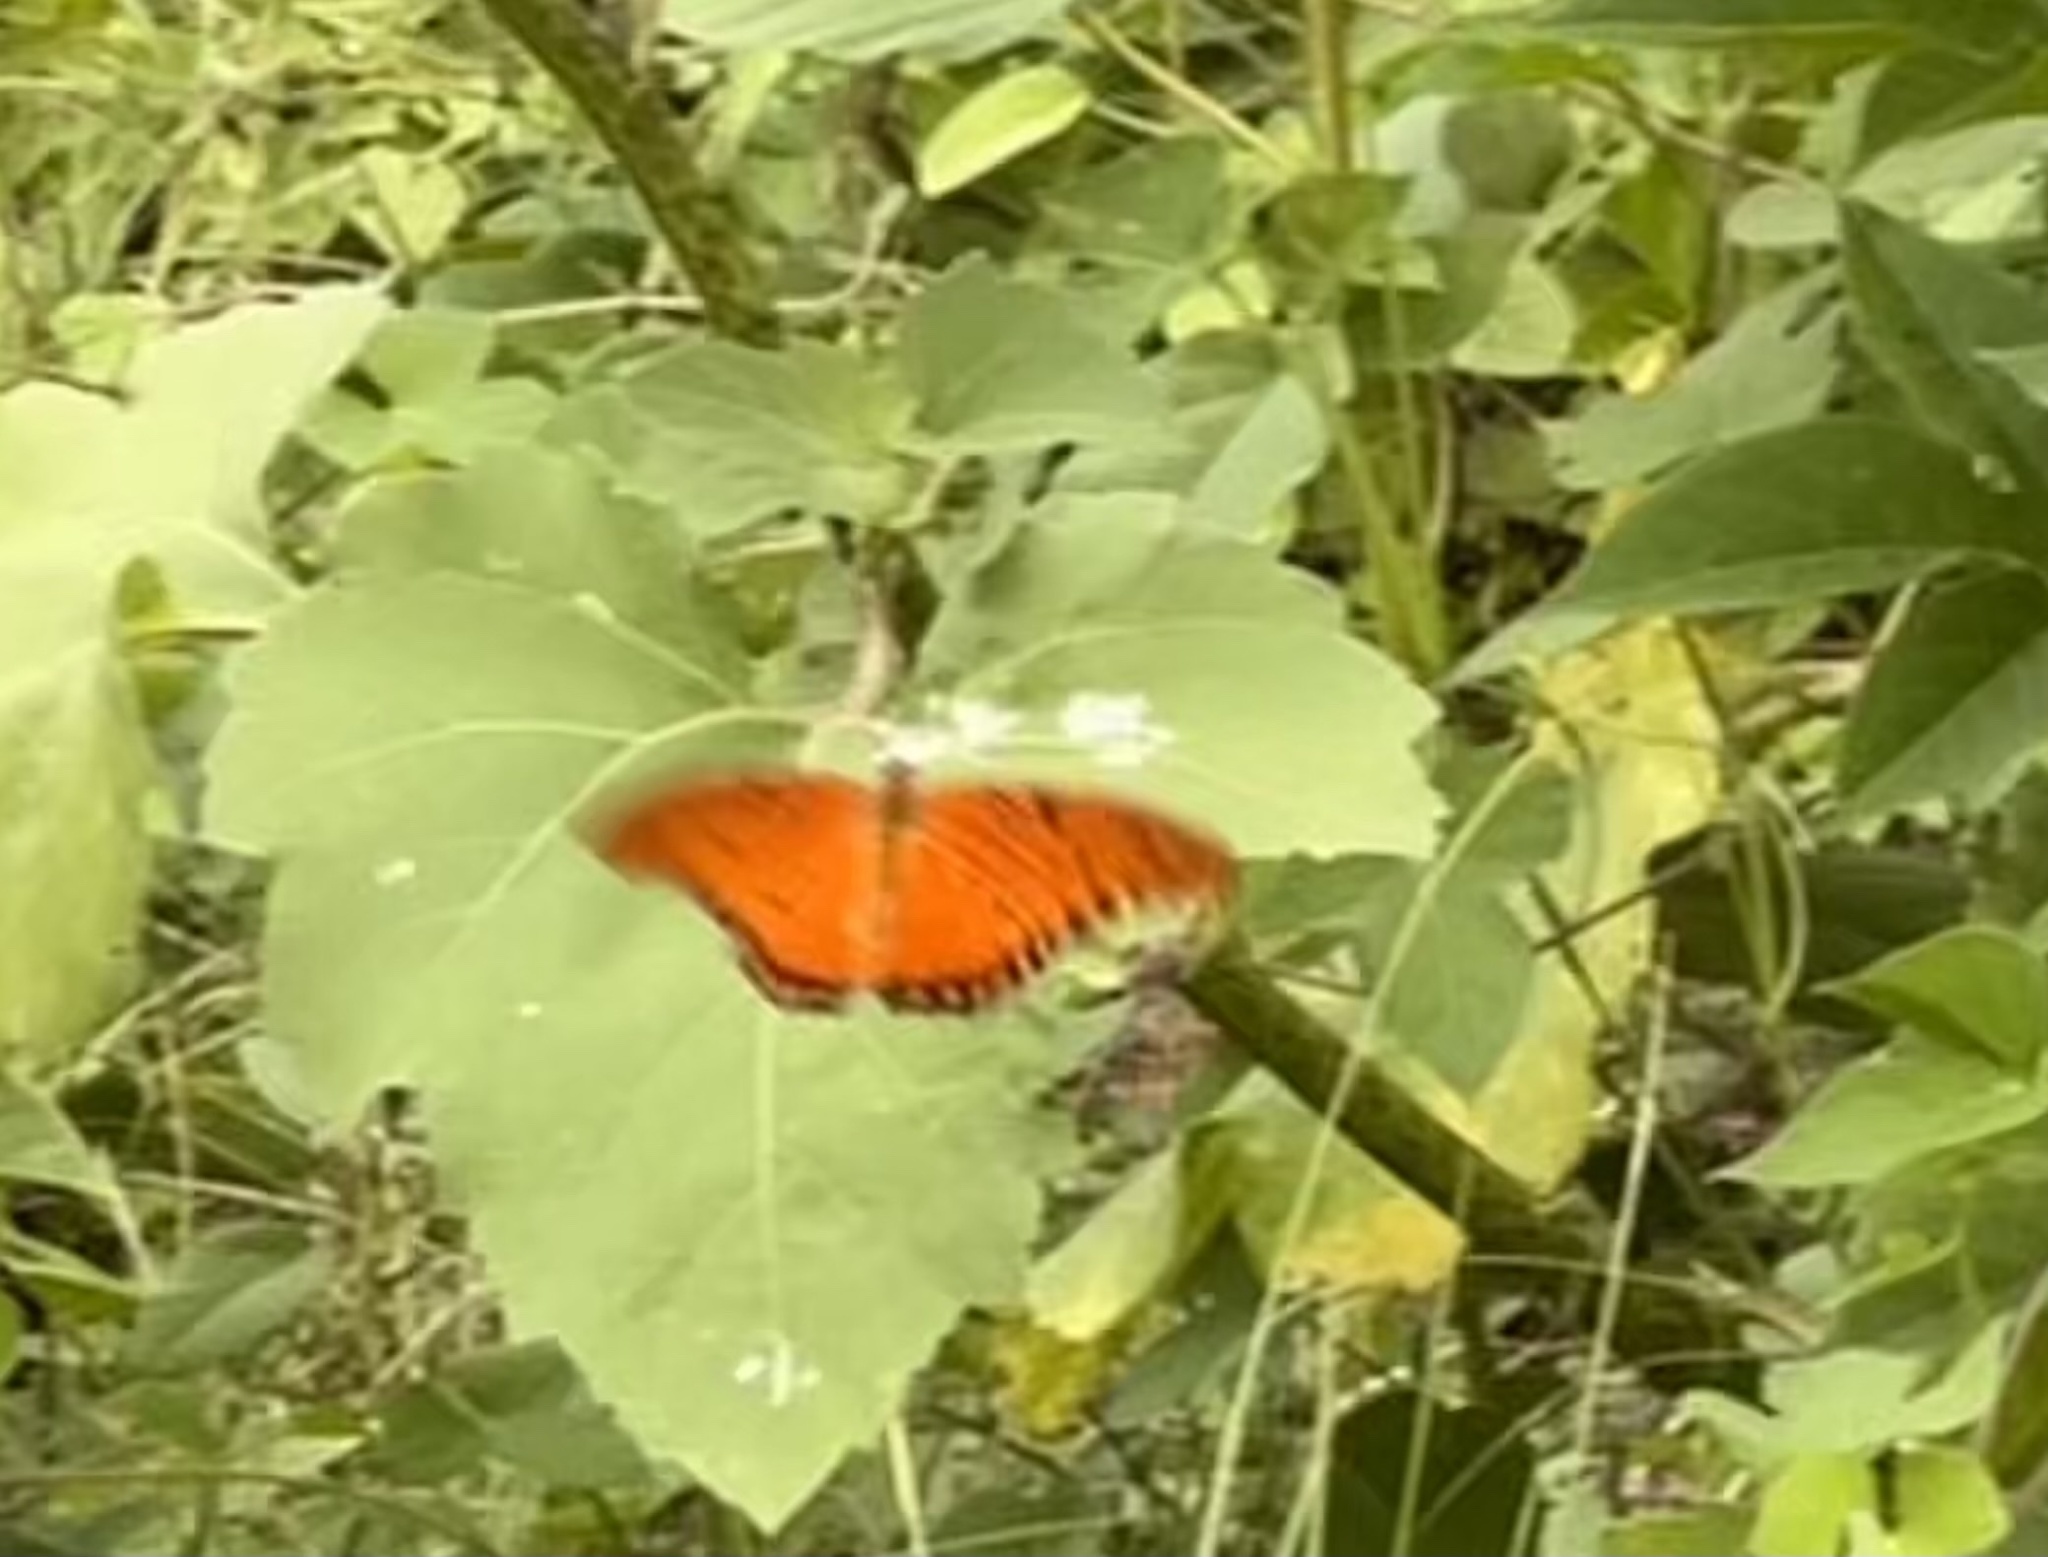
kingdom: Animalia
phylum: Arthropoda
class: Insecta
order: Lepidoptera
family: Nymphalidae
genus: Dione
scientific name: Dione vanillae
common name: Gulf fritillary
